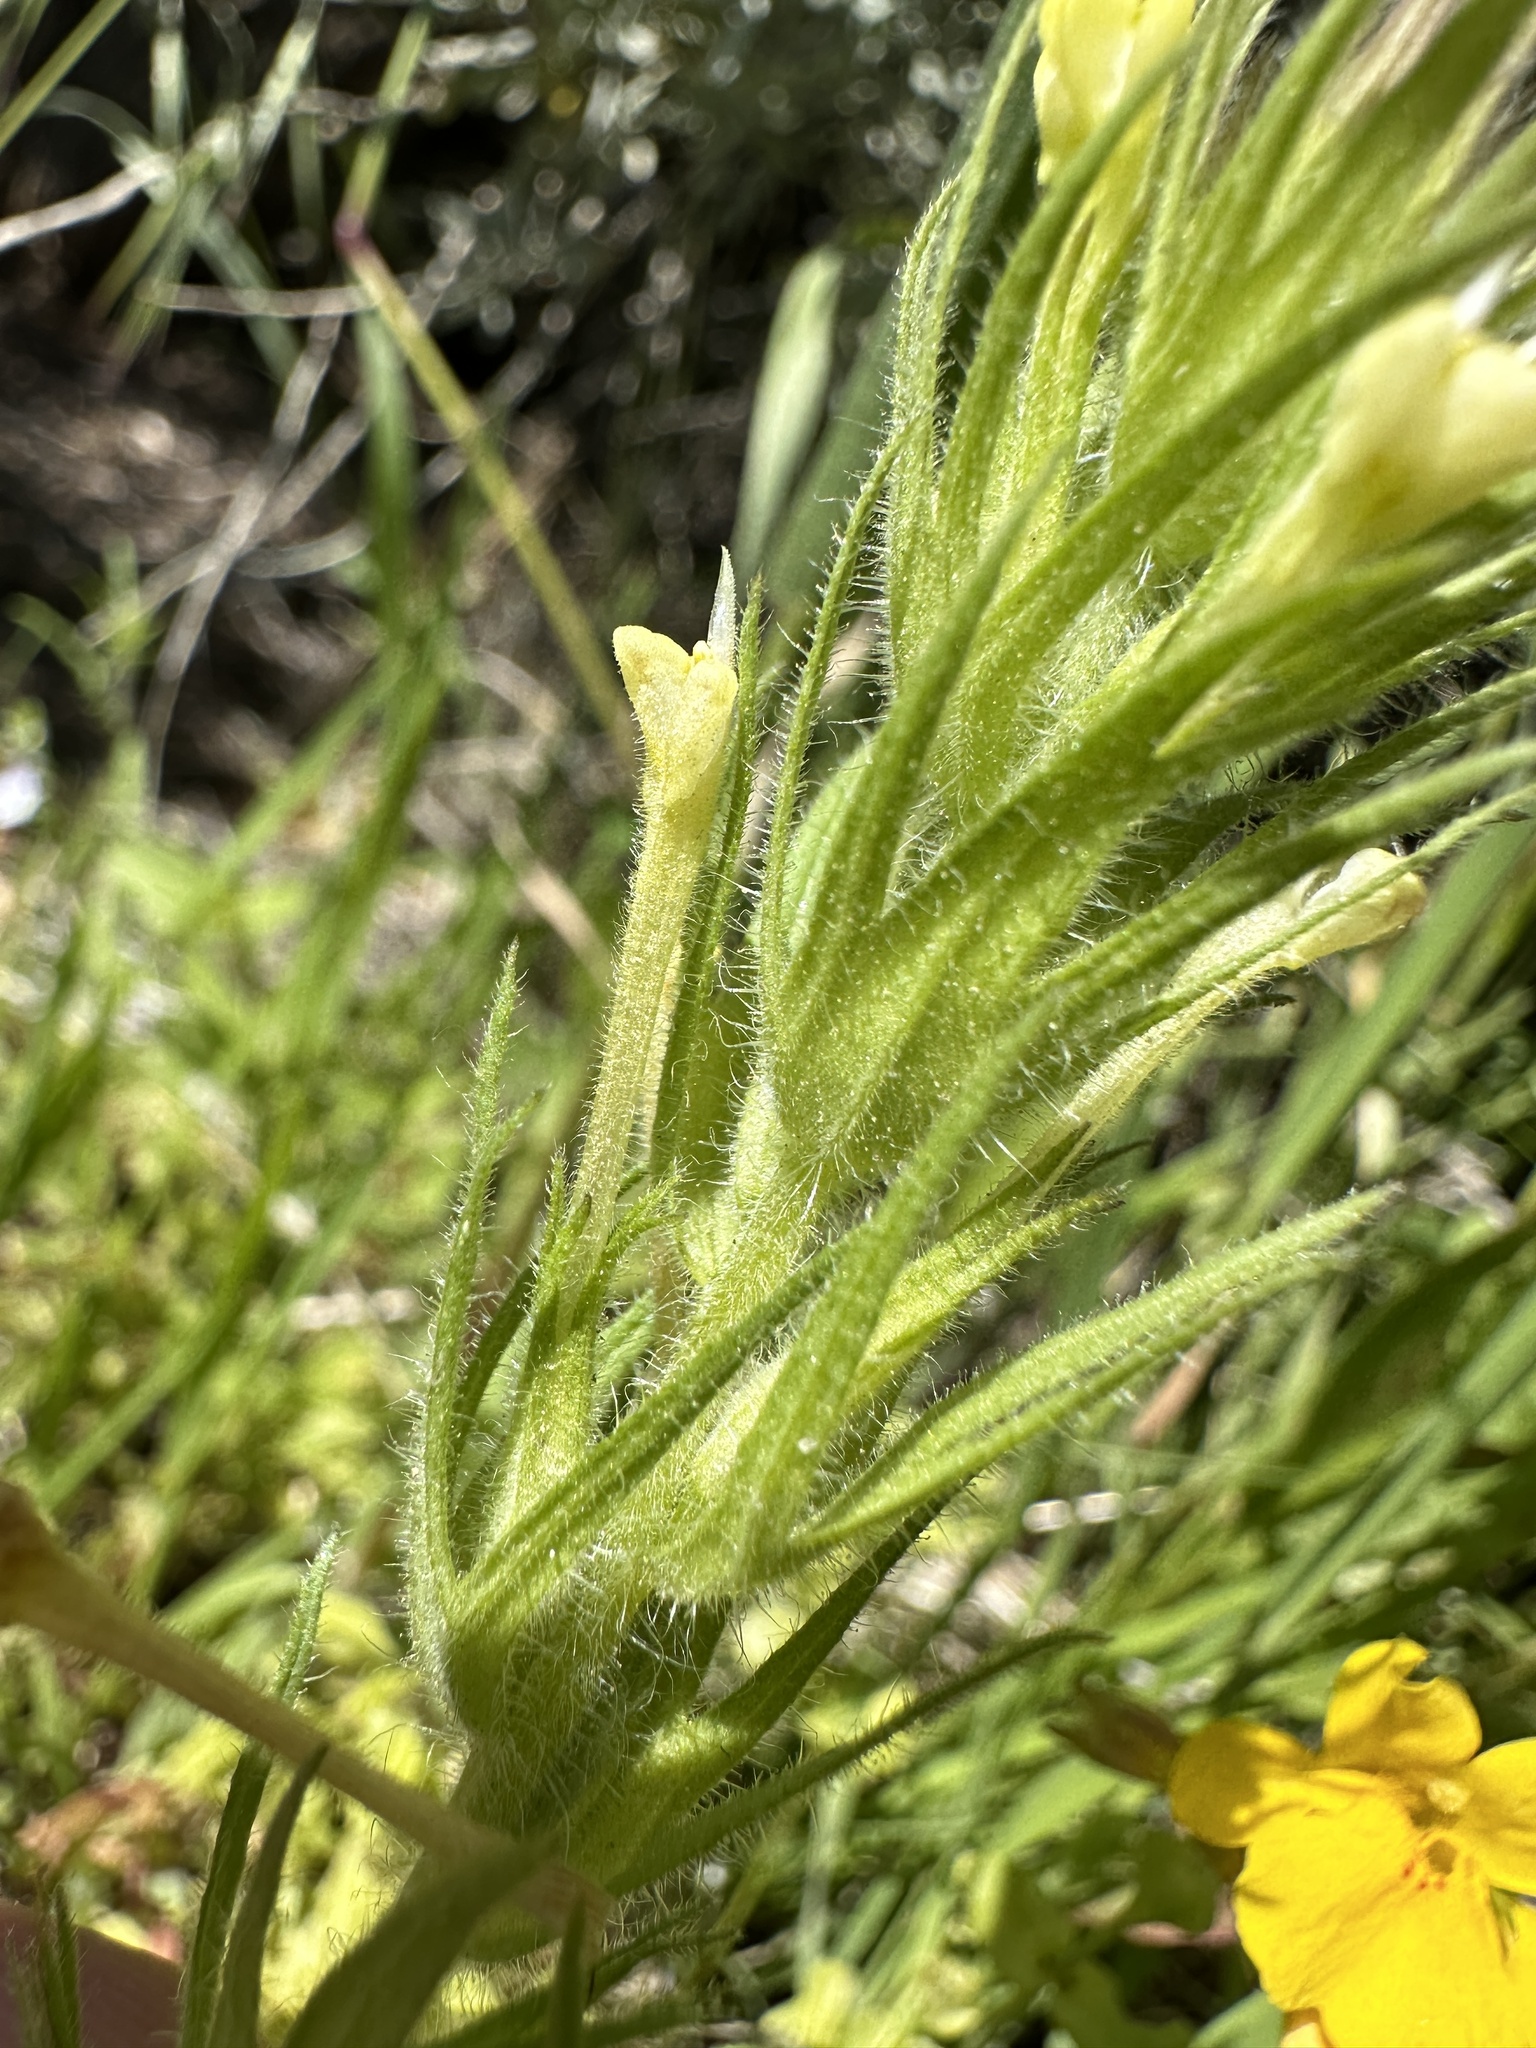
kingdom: Plantae
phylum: Tracheophyta
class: Magnoliopsida
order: Lamiales
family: Orobanchaceae
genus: Castilleja
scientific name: Castilleja tenuis
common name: Hairy indian paintbrush
